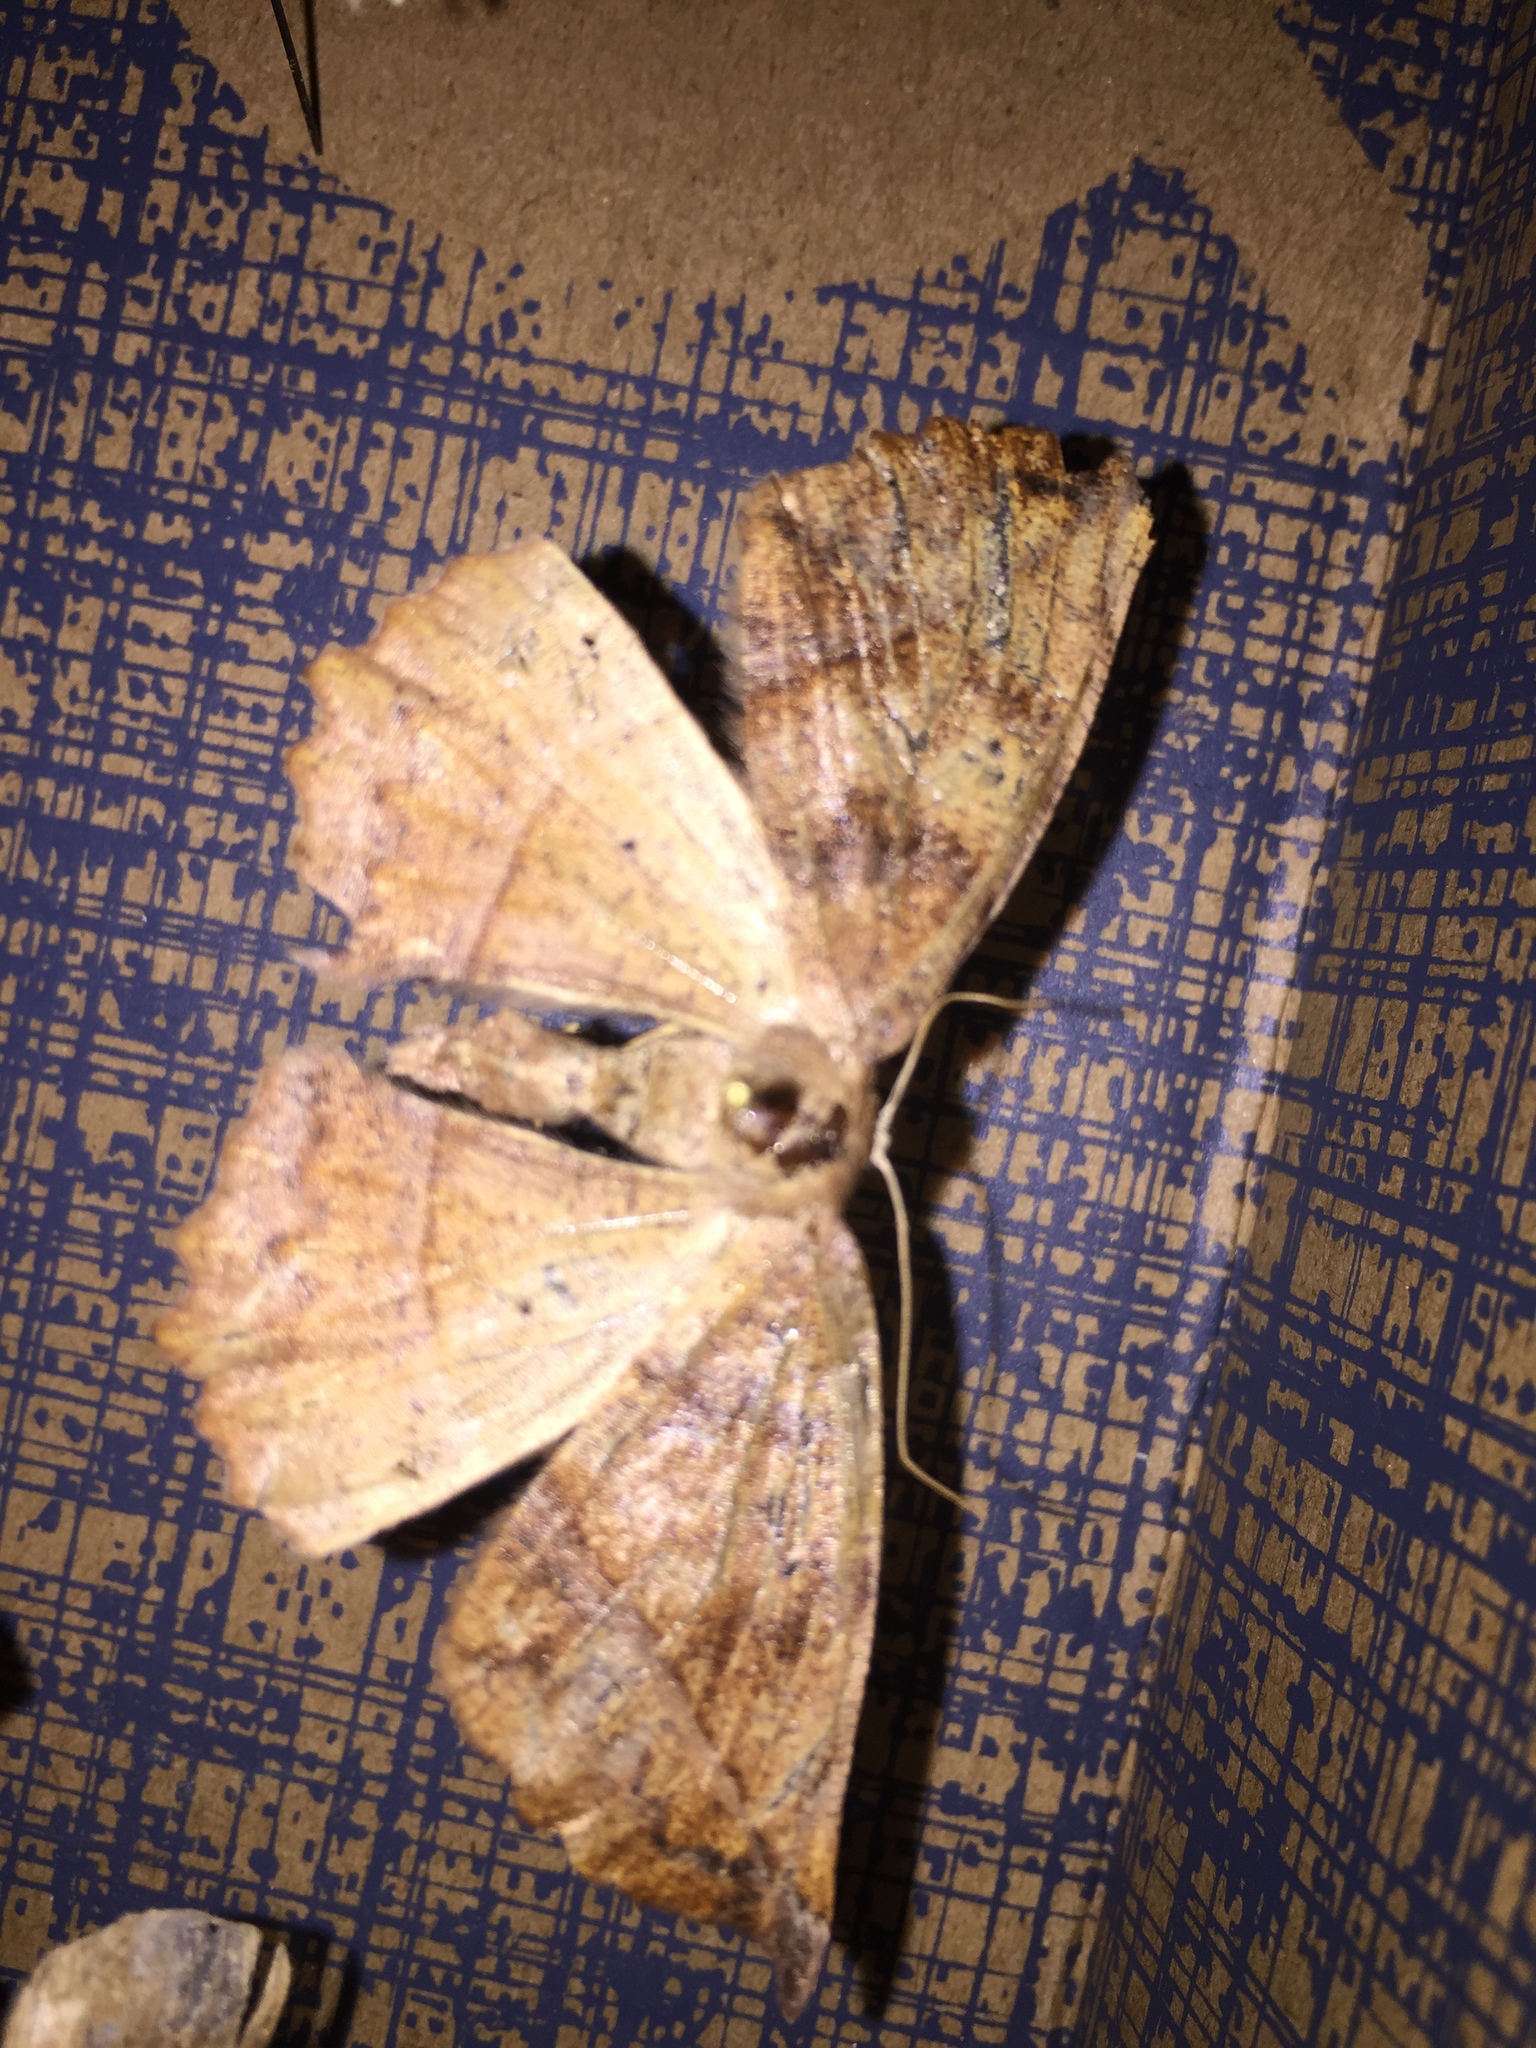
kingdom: Animalia
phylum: Arthropoda
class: Insecta
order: Lepidoptera
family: Geometridae
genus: Eutrapela
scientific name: Eutrapela clemataria
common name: Curved-toothed geometer
